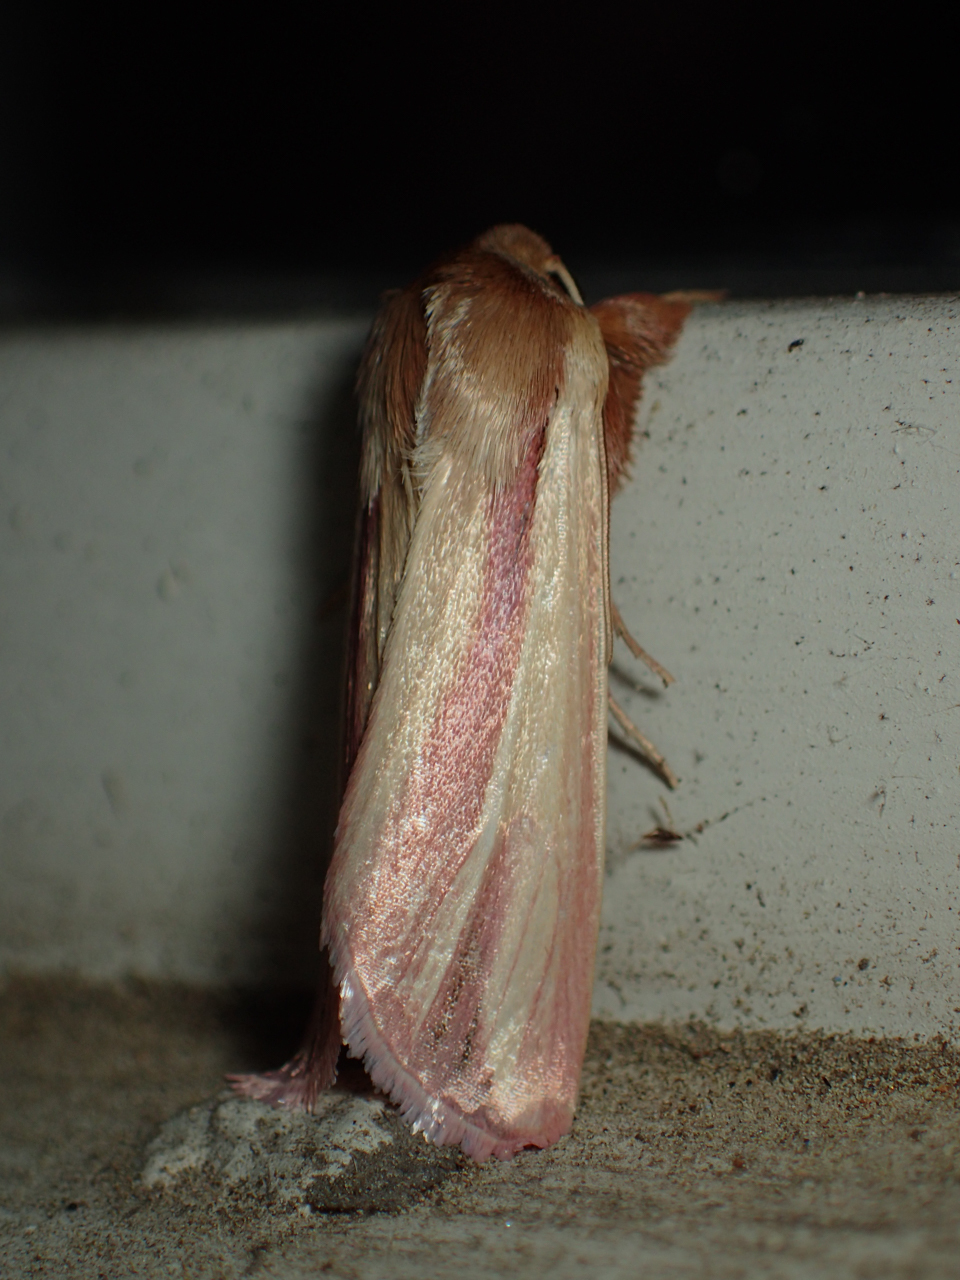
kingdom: Animalia
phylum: Arthropoda
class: Insecta
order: Lepidoptera
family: Noctuidae
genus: Dargida
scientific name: Dargida rubripennis
